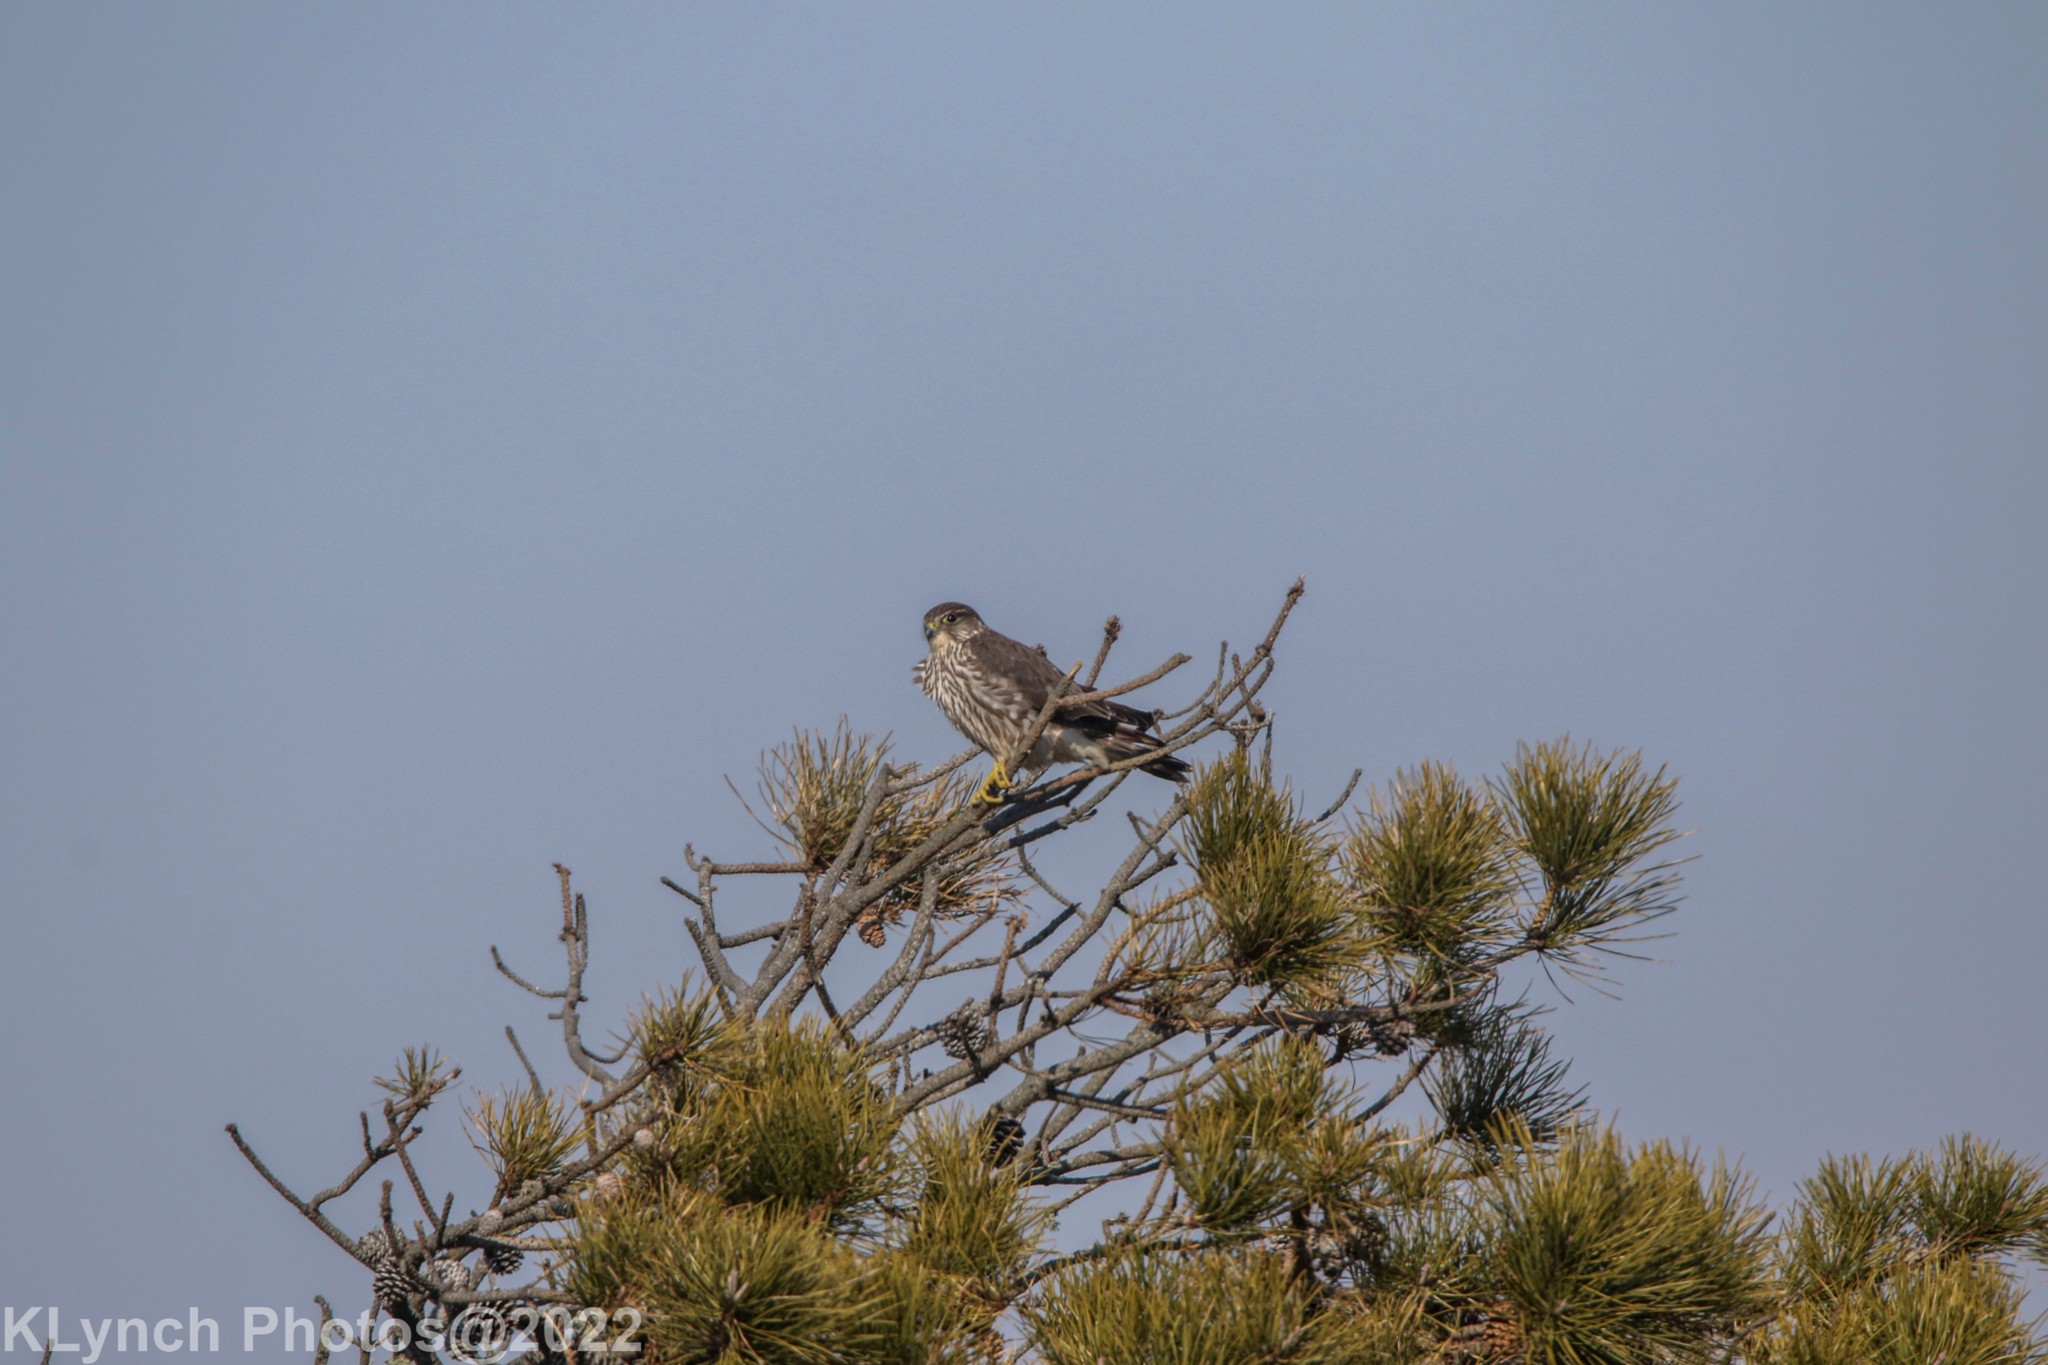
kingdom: Animalia
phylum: Chordata
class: Aves
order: Falconiformes
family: Falconidae
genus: Falco
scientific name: Falco columbarius
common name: Merlin
